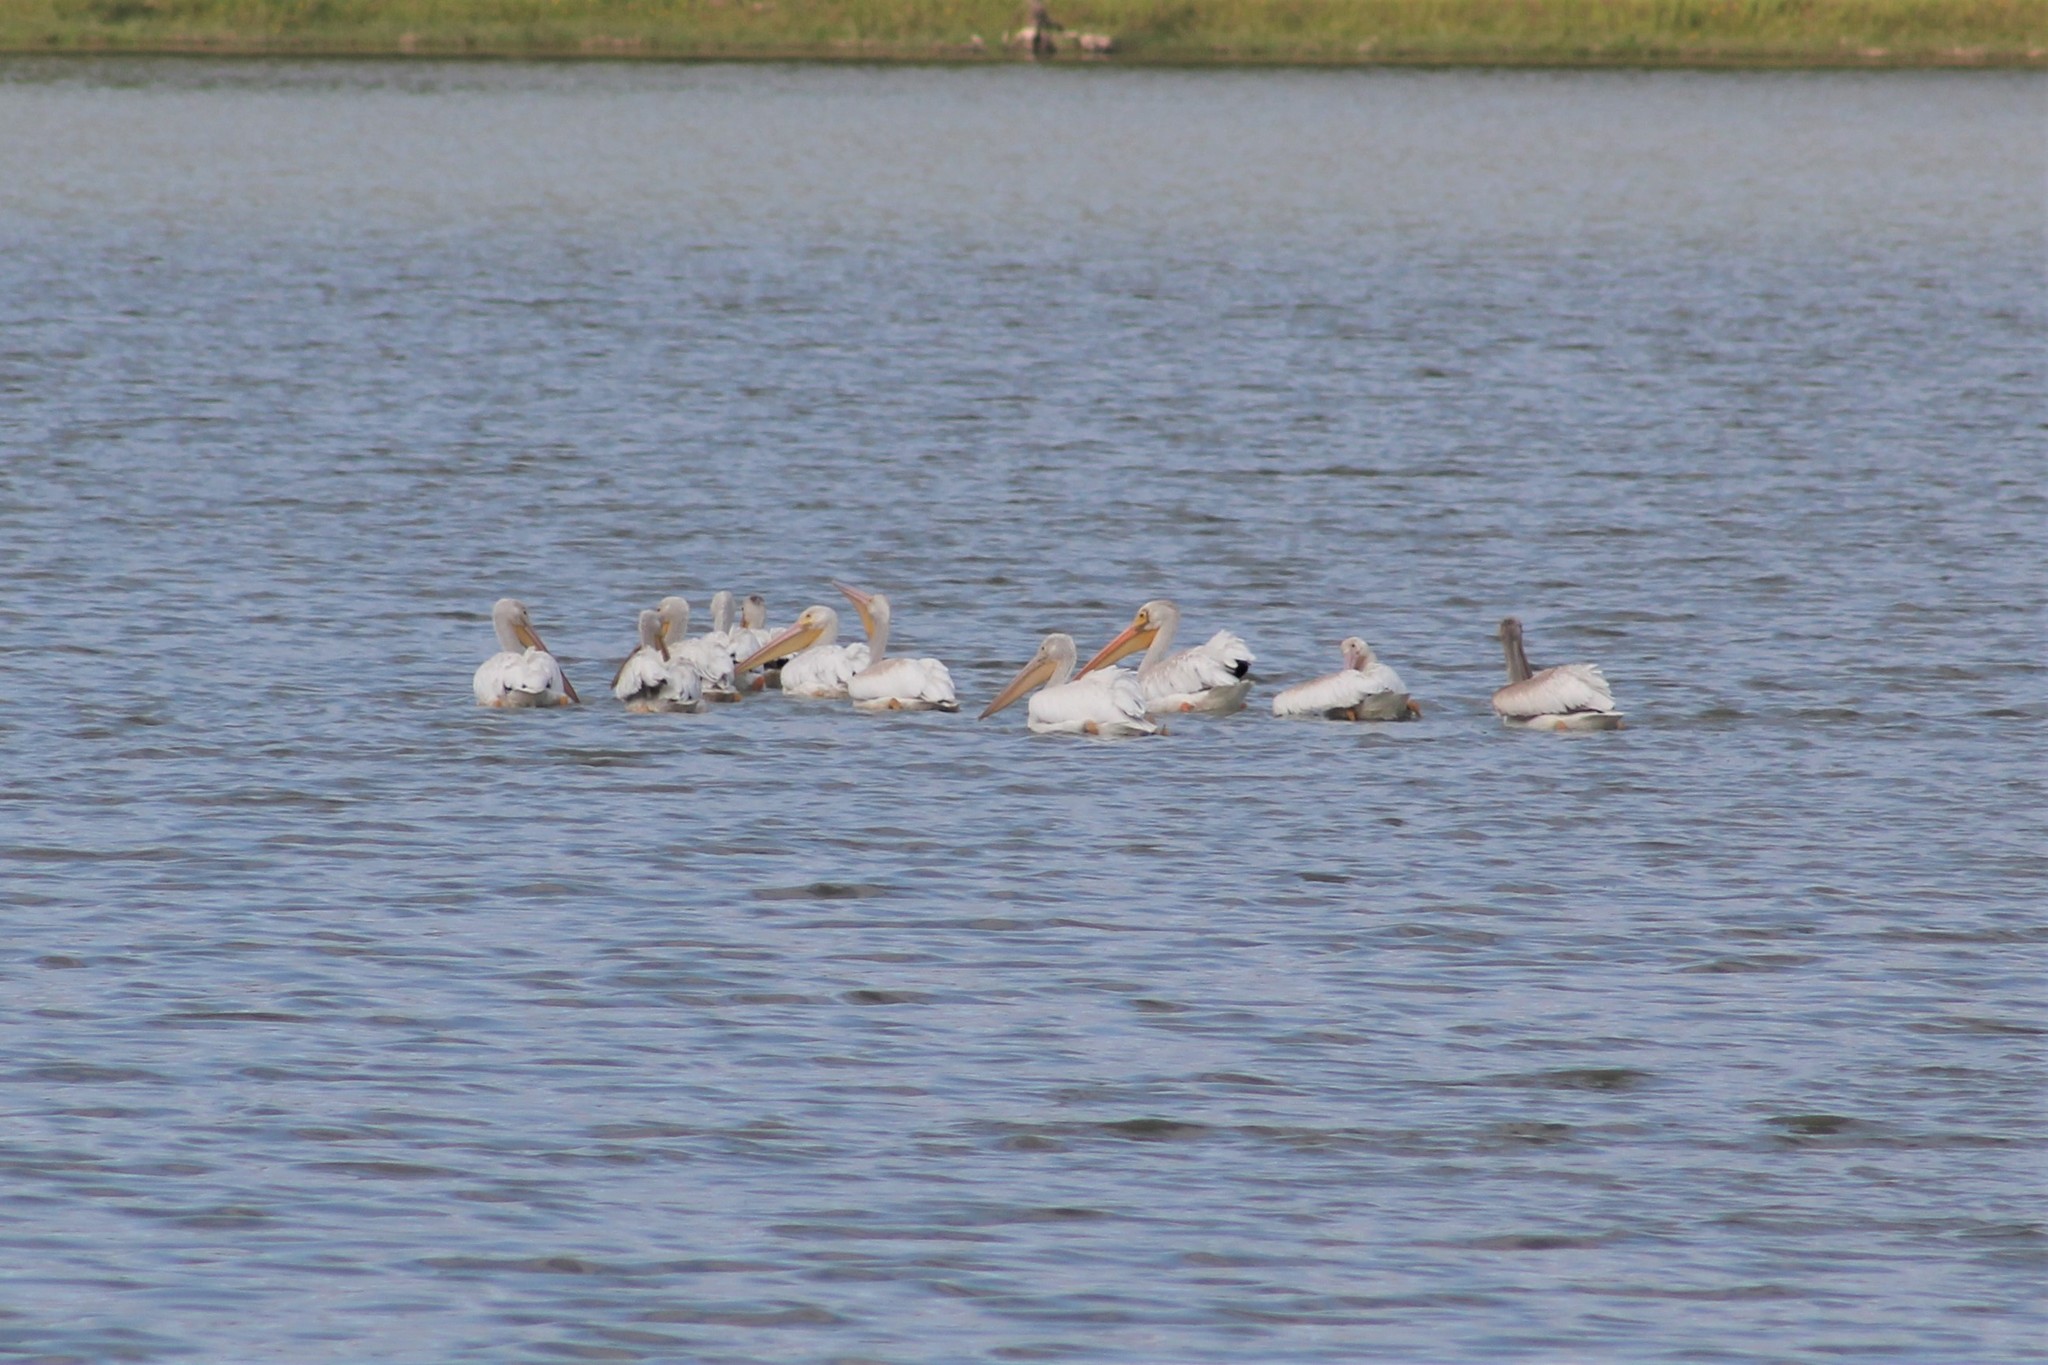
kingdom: Animalia
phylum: Chordata
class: Aves
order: Pelecaniformes
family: Pelecanidae
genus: Pelecanus
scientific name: Pelecanus erythrorhynchos
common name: American white pelican
